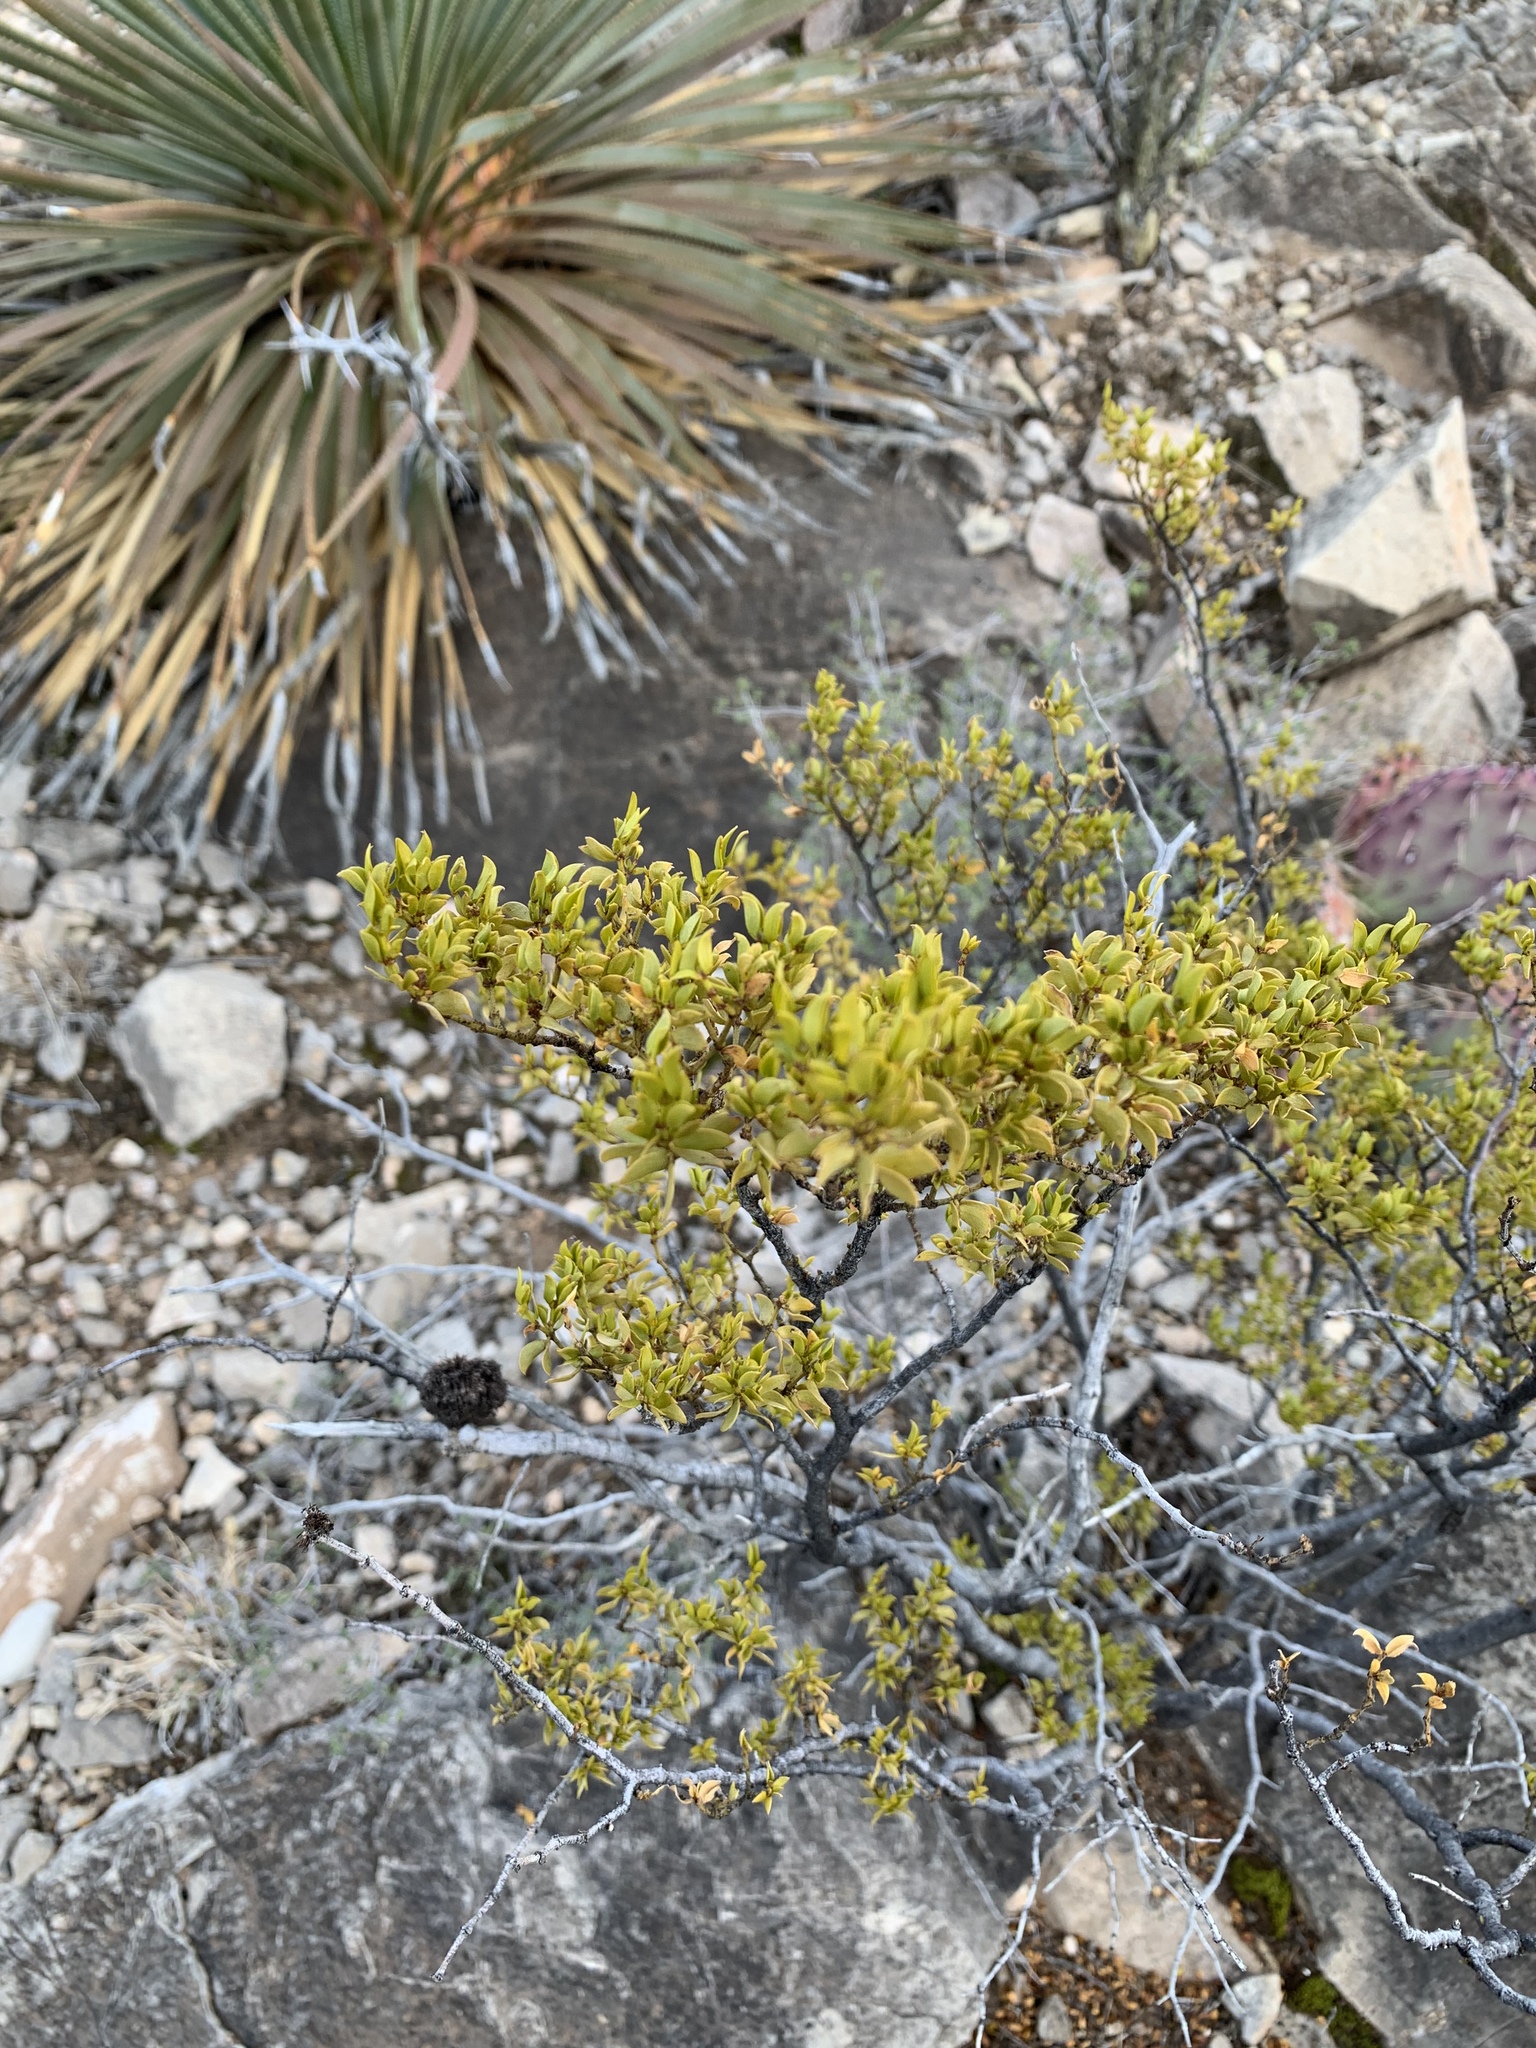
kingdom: Plantae
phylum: Tracheophyta
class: Magnoliopsida
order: Zygophyllales
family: Zygophyllaceae
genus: Larrea
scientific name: Larrea tridentata
